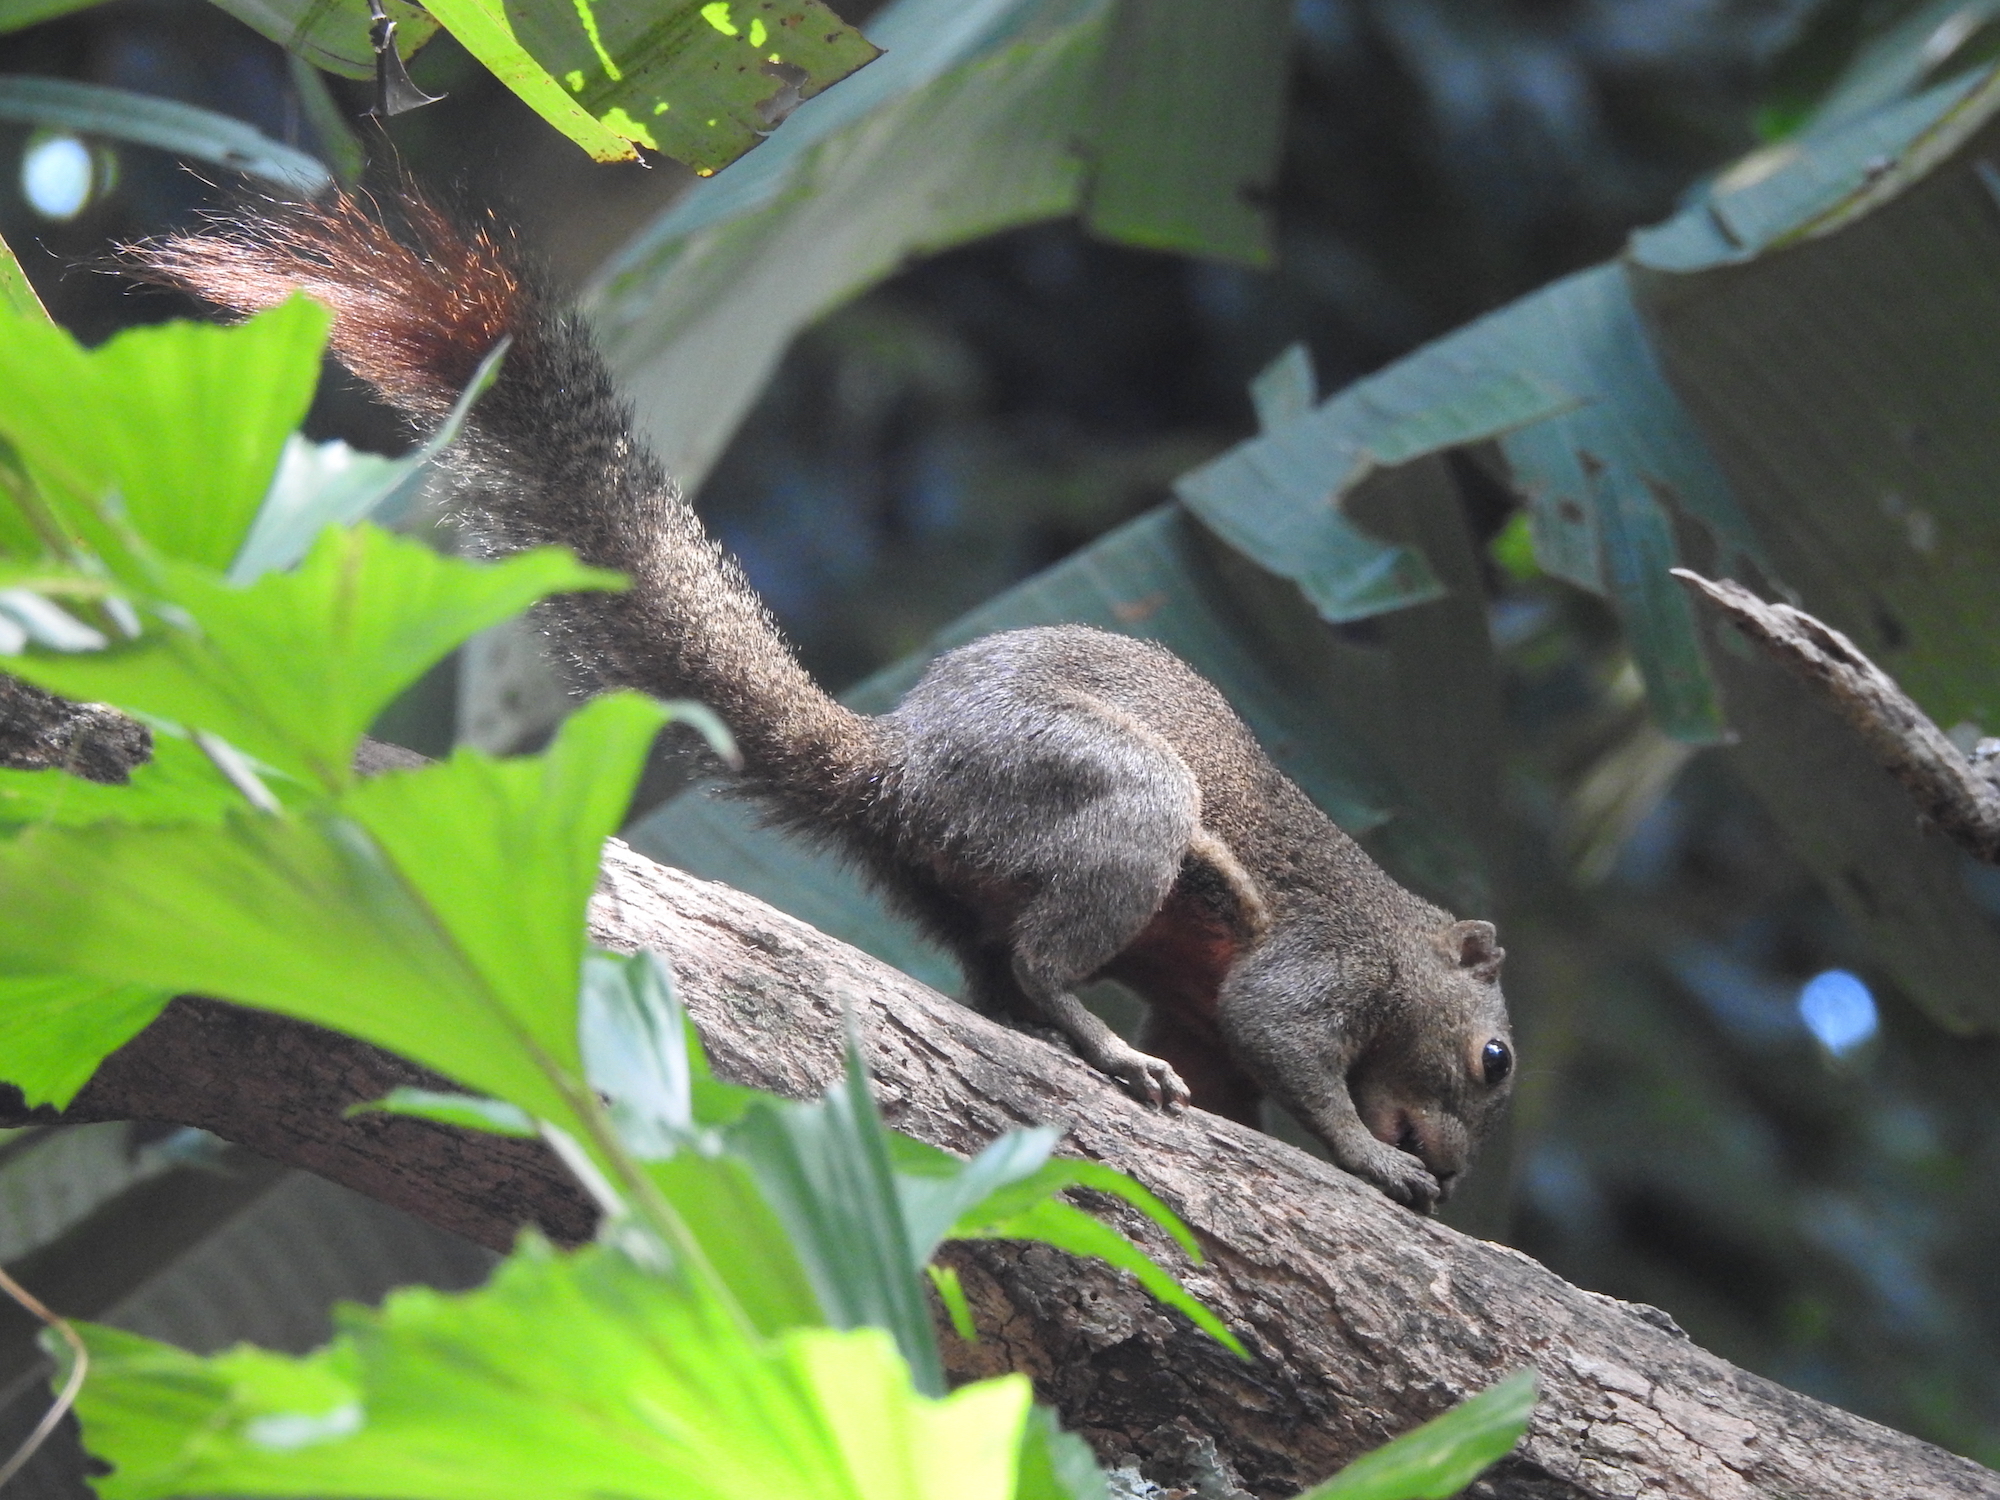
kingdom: Animalia
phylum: Chordata
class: Mammalia
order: Rodentia
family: Sciuridae
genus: Callosciurus
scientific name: Callosciurus notatus
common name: Plantain squirrel
